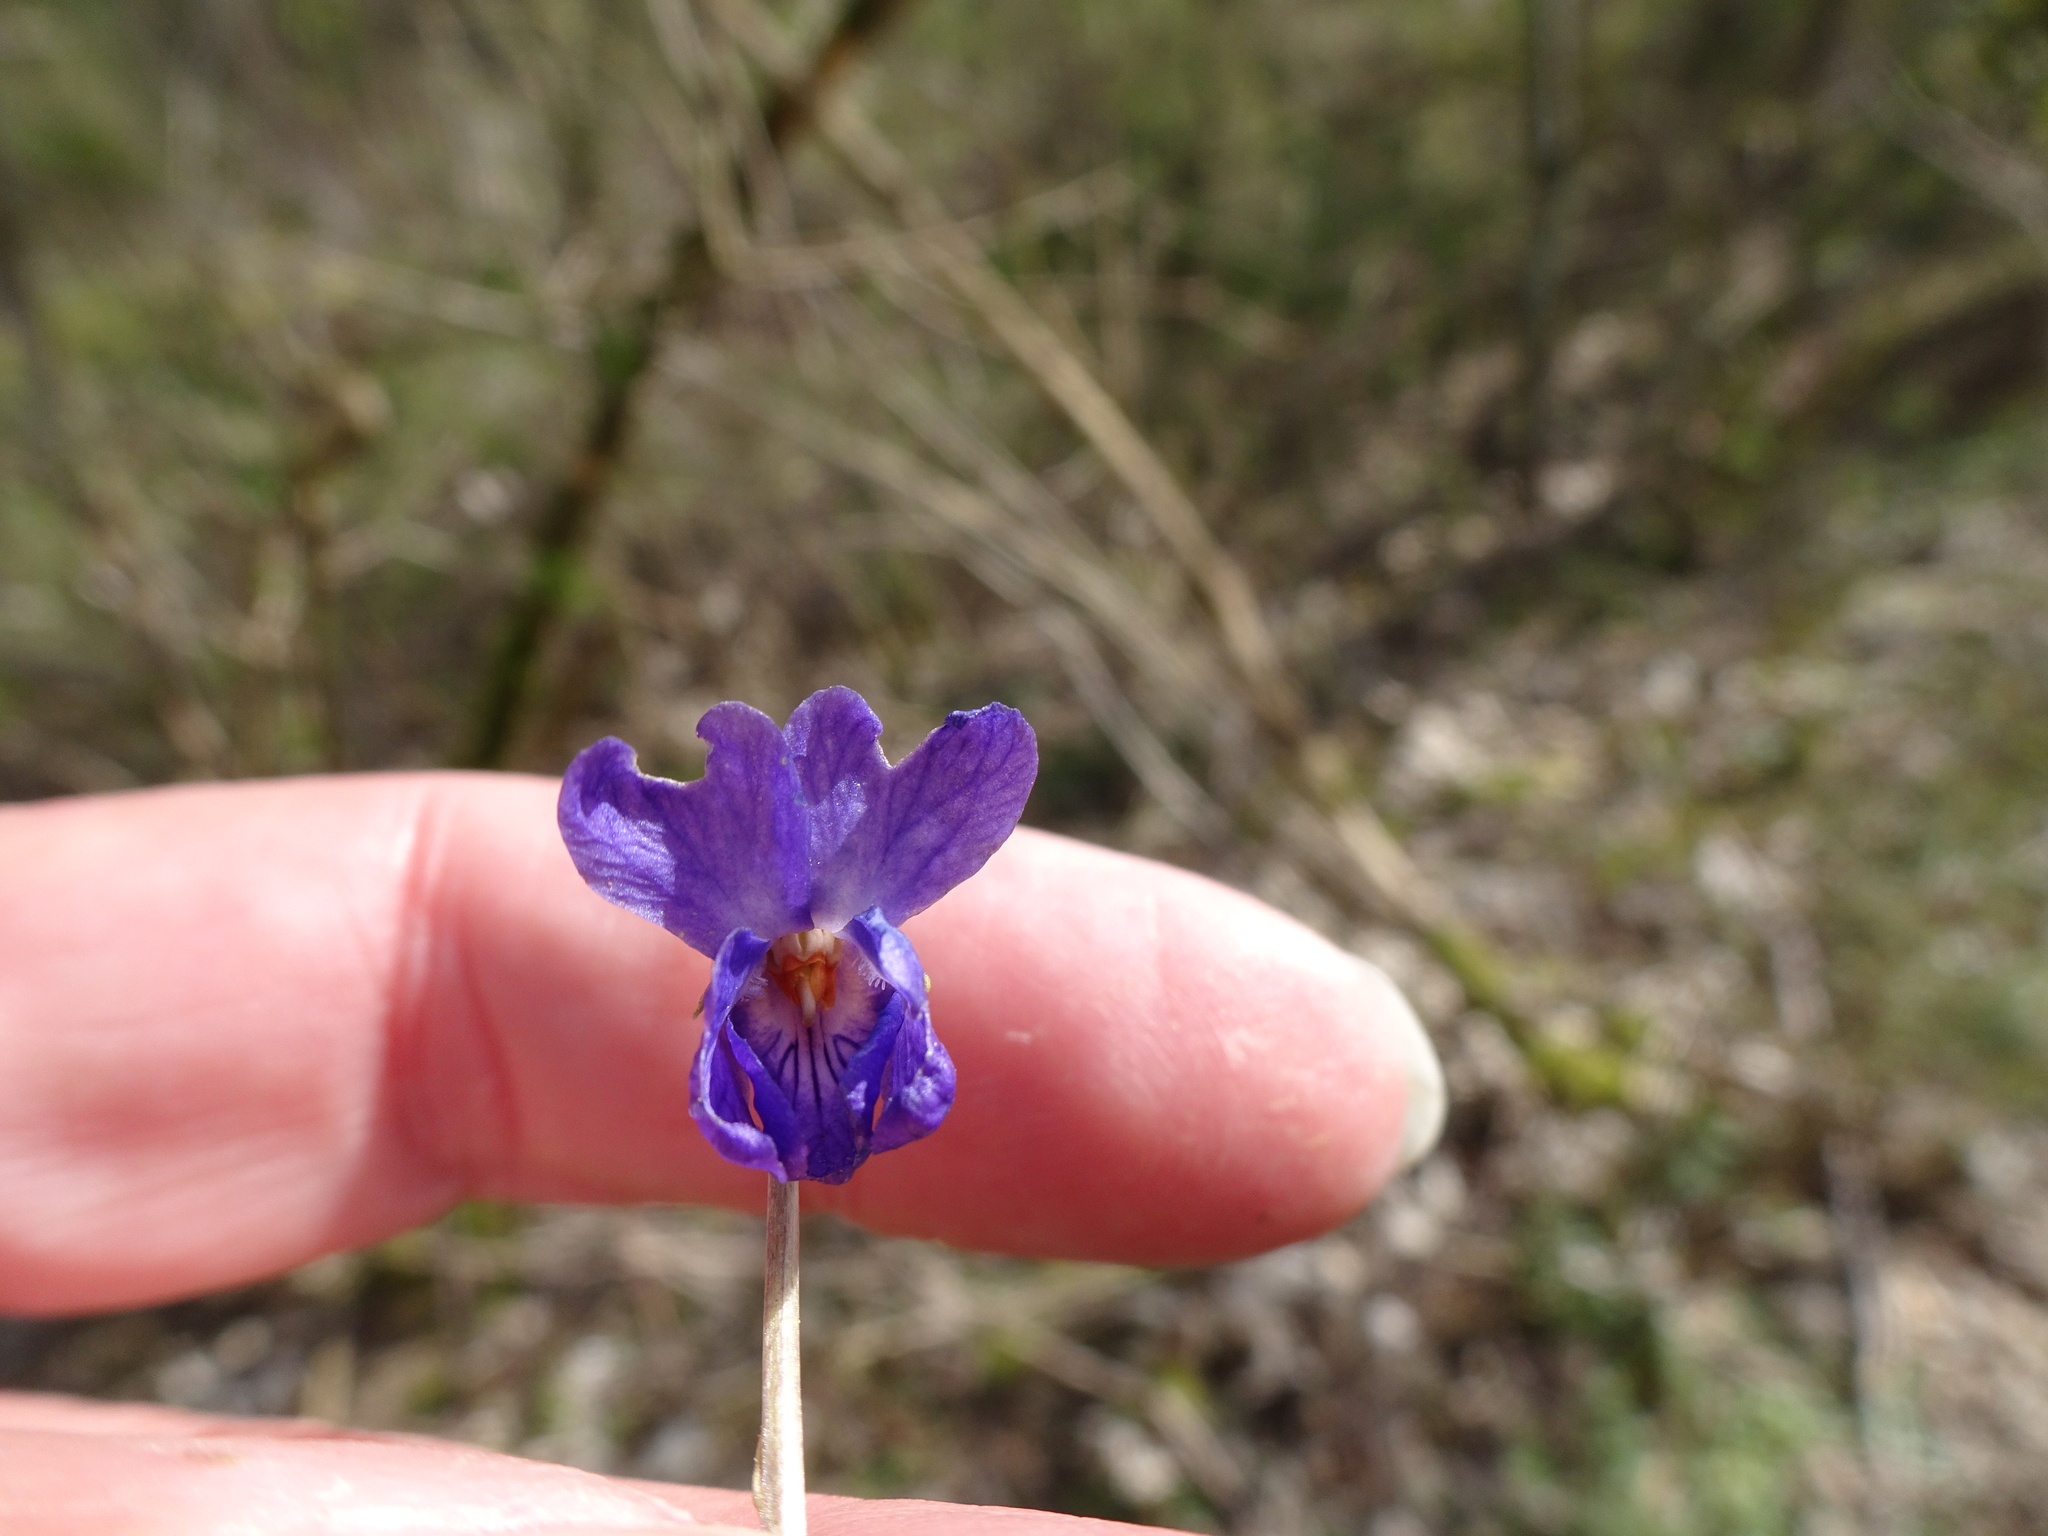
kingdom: Plantae
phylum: Tracheophyta
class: Magnoliopsida
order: Malpighiales
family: Violaceae
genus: Viola
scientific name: Viola odorata
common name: Sweet violet
